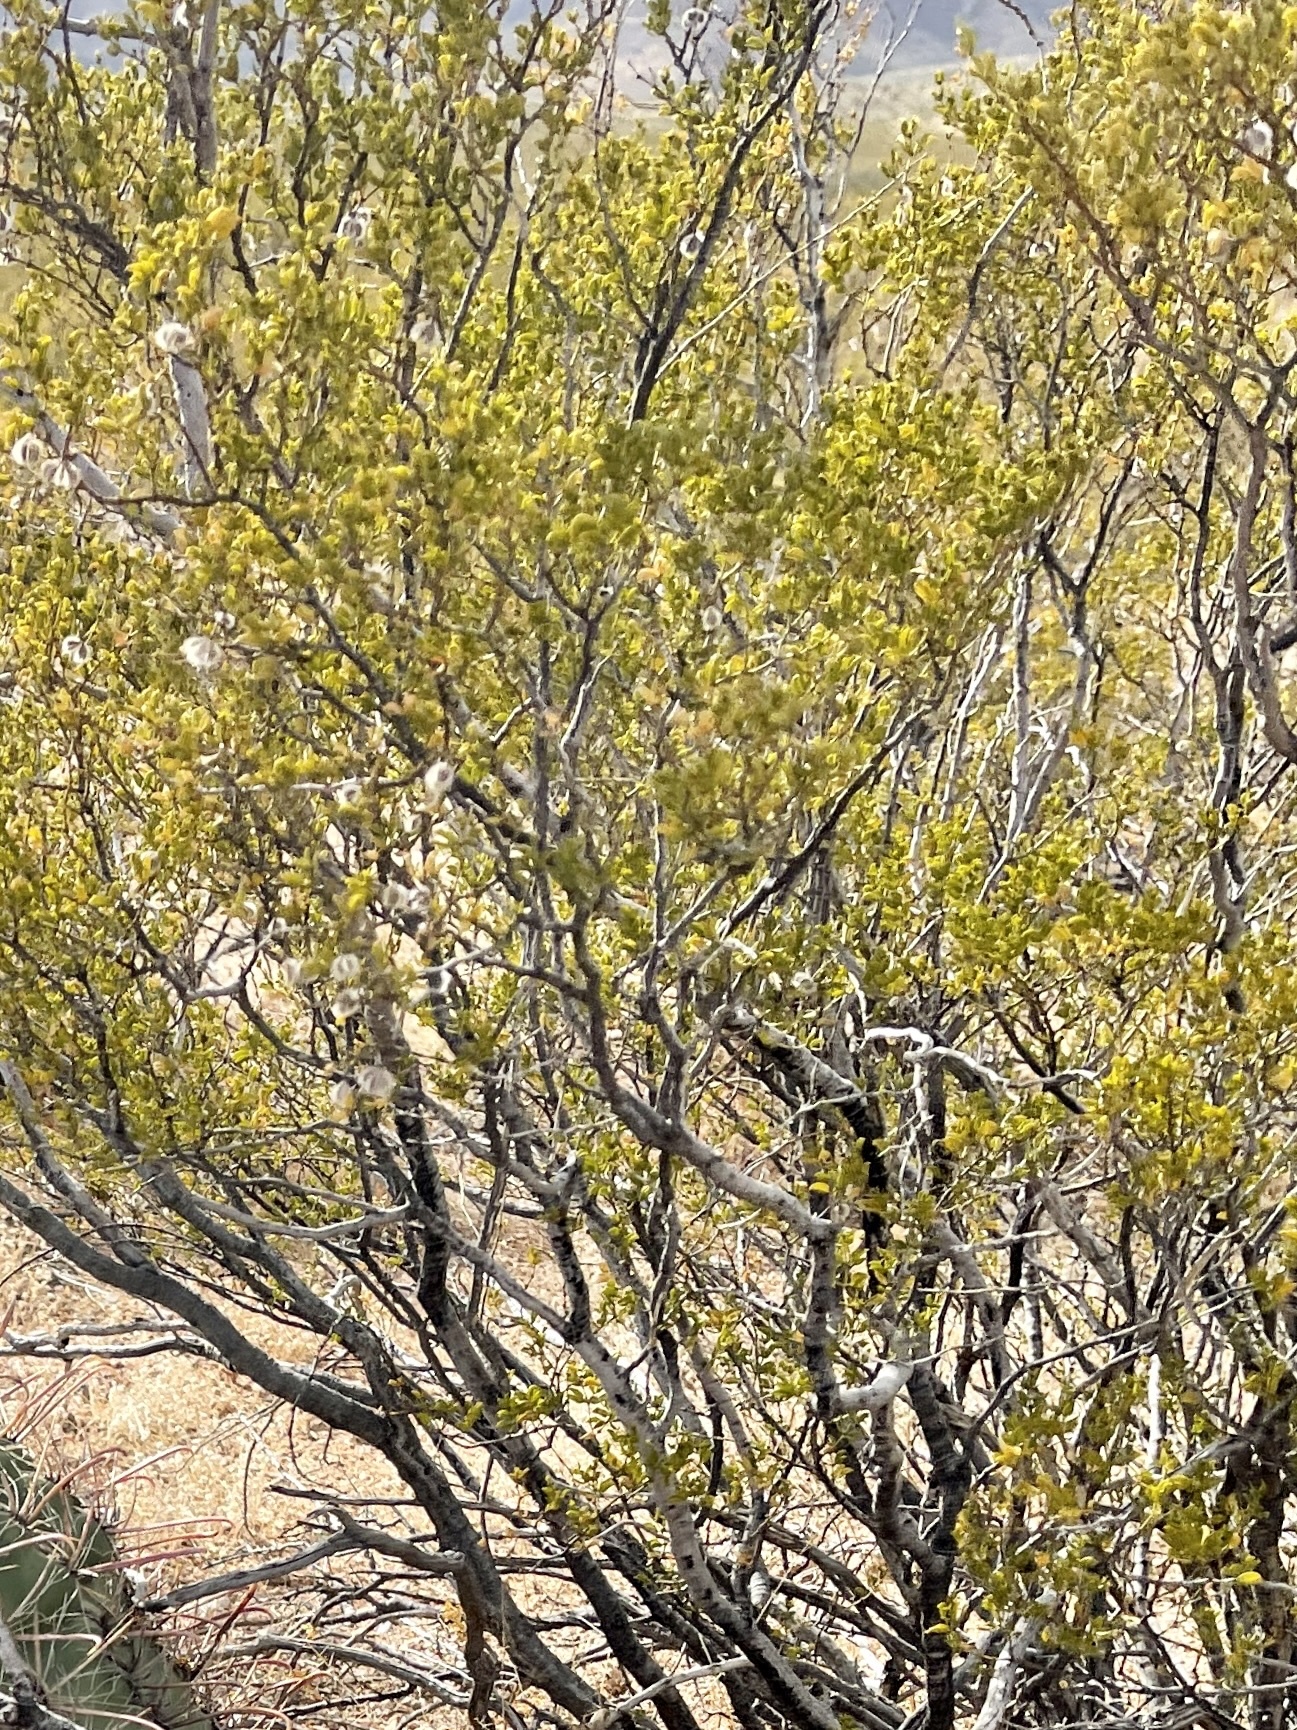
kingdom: Plantae
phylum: Tracheophyta
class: Magnoliopsida
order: Zygophyllales
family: Zygophyllaceae
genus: Larrea
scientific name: Larrea tridentata
